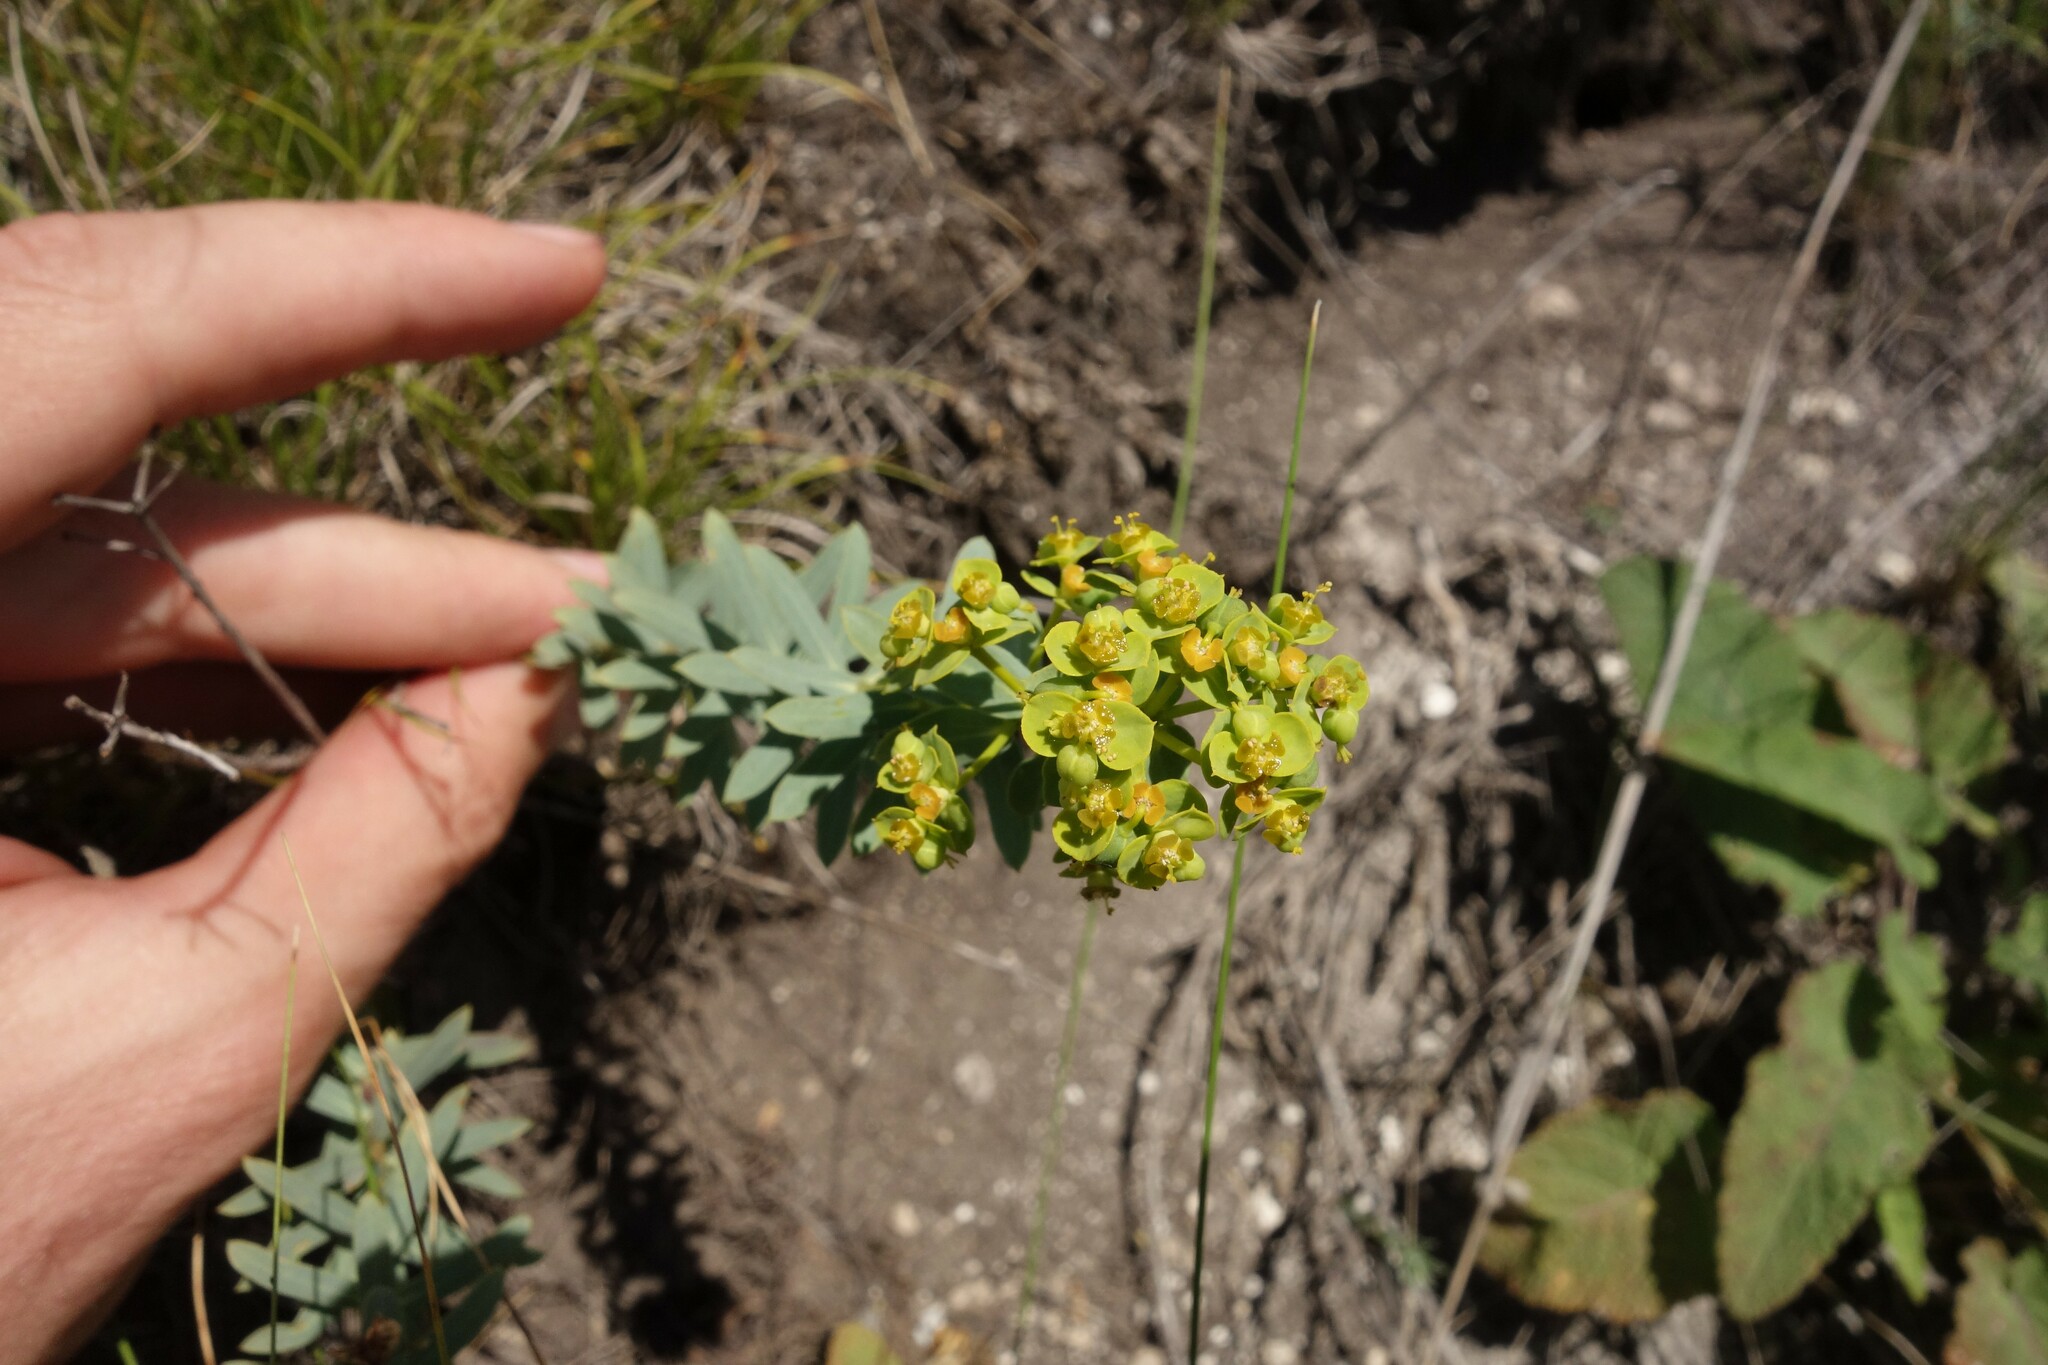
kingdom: Plantae
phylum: Tracheophyta
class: Magnoliopsida
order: Malpighiales
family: Euphorbiaceae
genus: Euphorbia
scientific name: Euphorbia seguieriana
